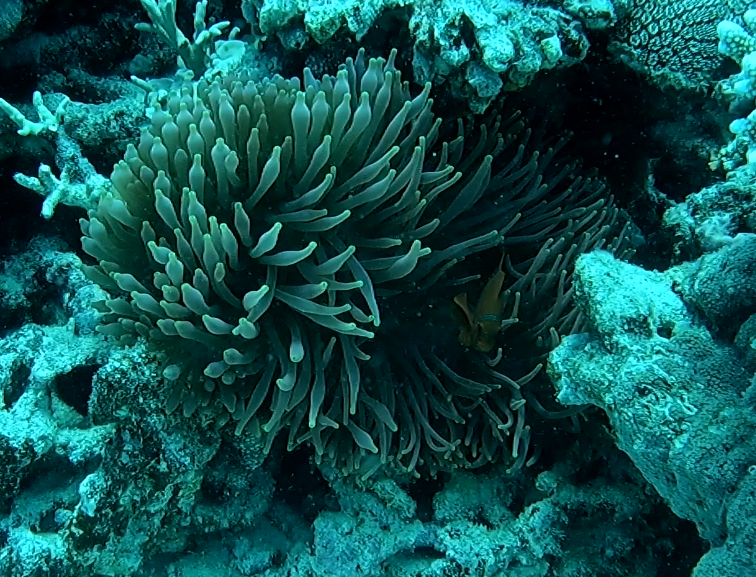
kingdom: Animalia
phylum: Cnidaria
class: Anthozoa
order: Actiniaria
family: Actiniidae
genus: Entacmaea
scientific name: Entacmaea quadricolor
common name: Bulb tentacle sea anemone
